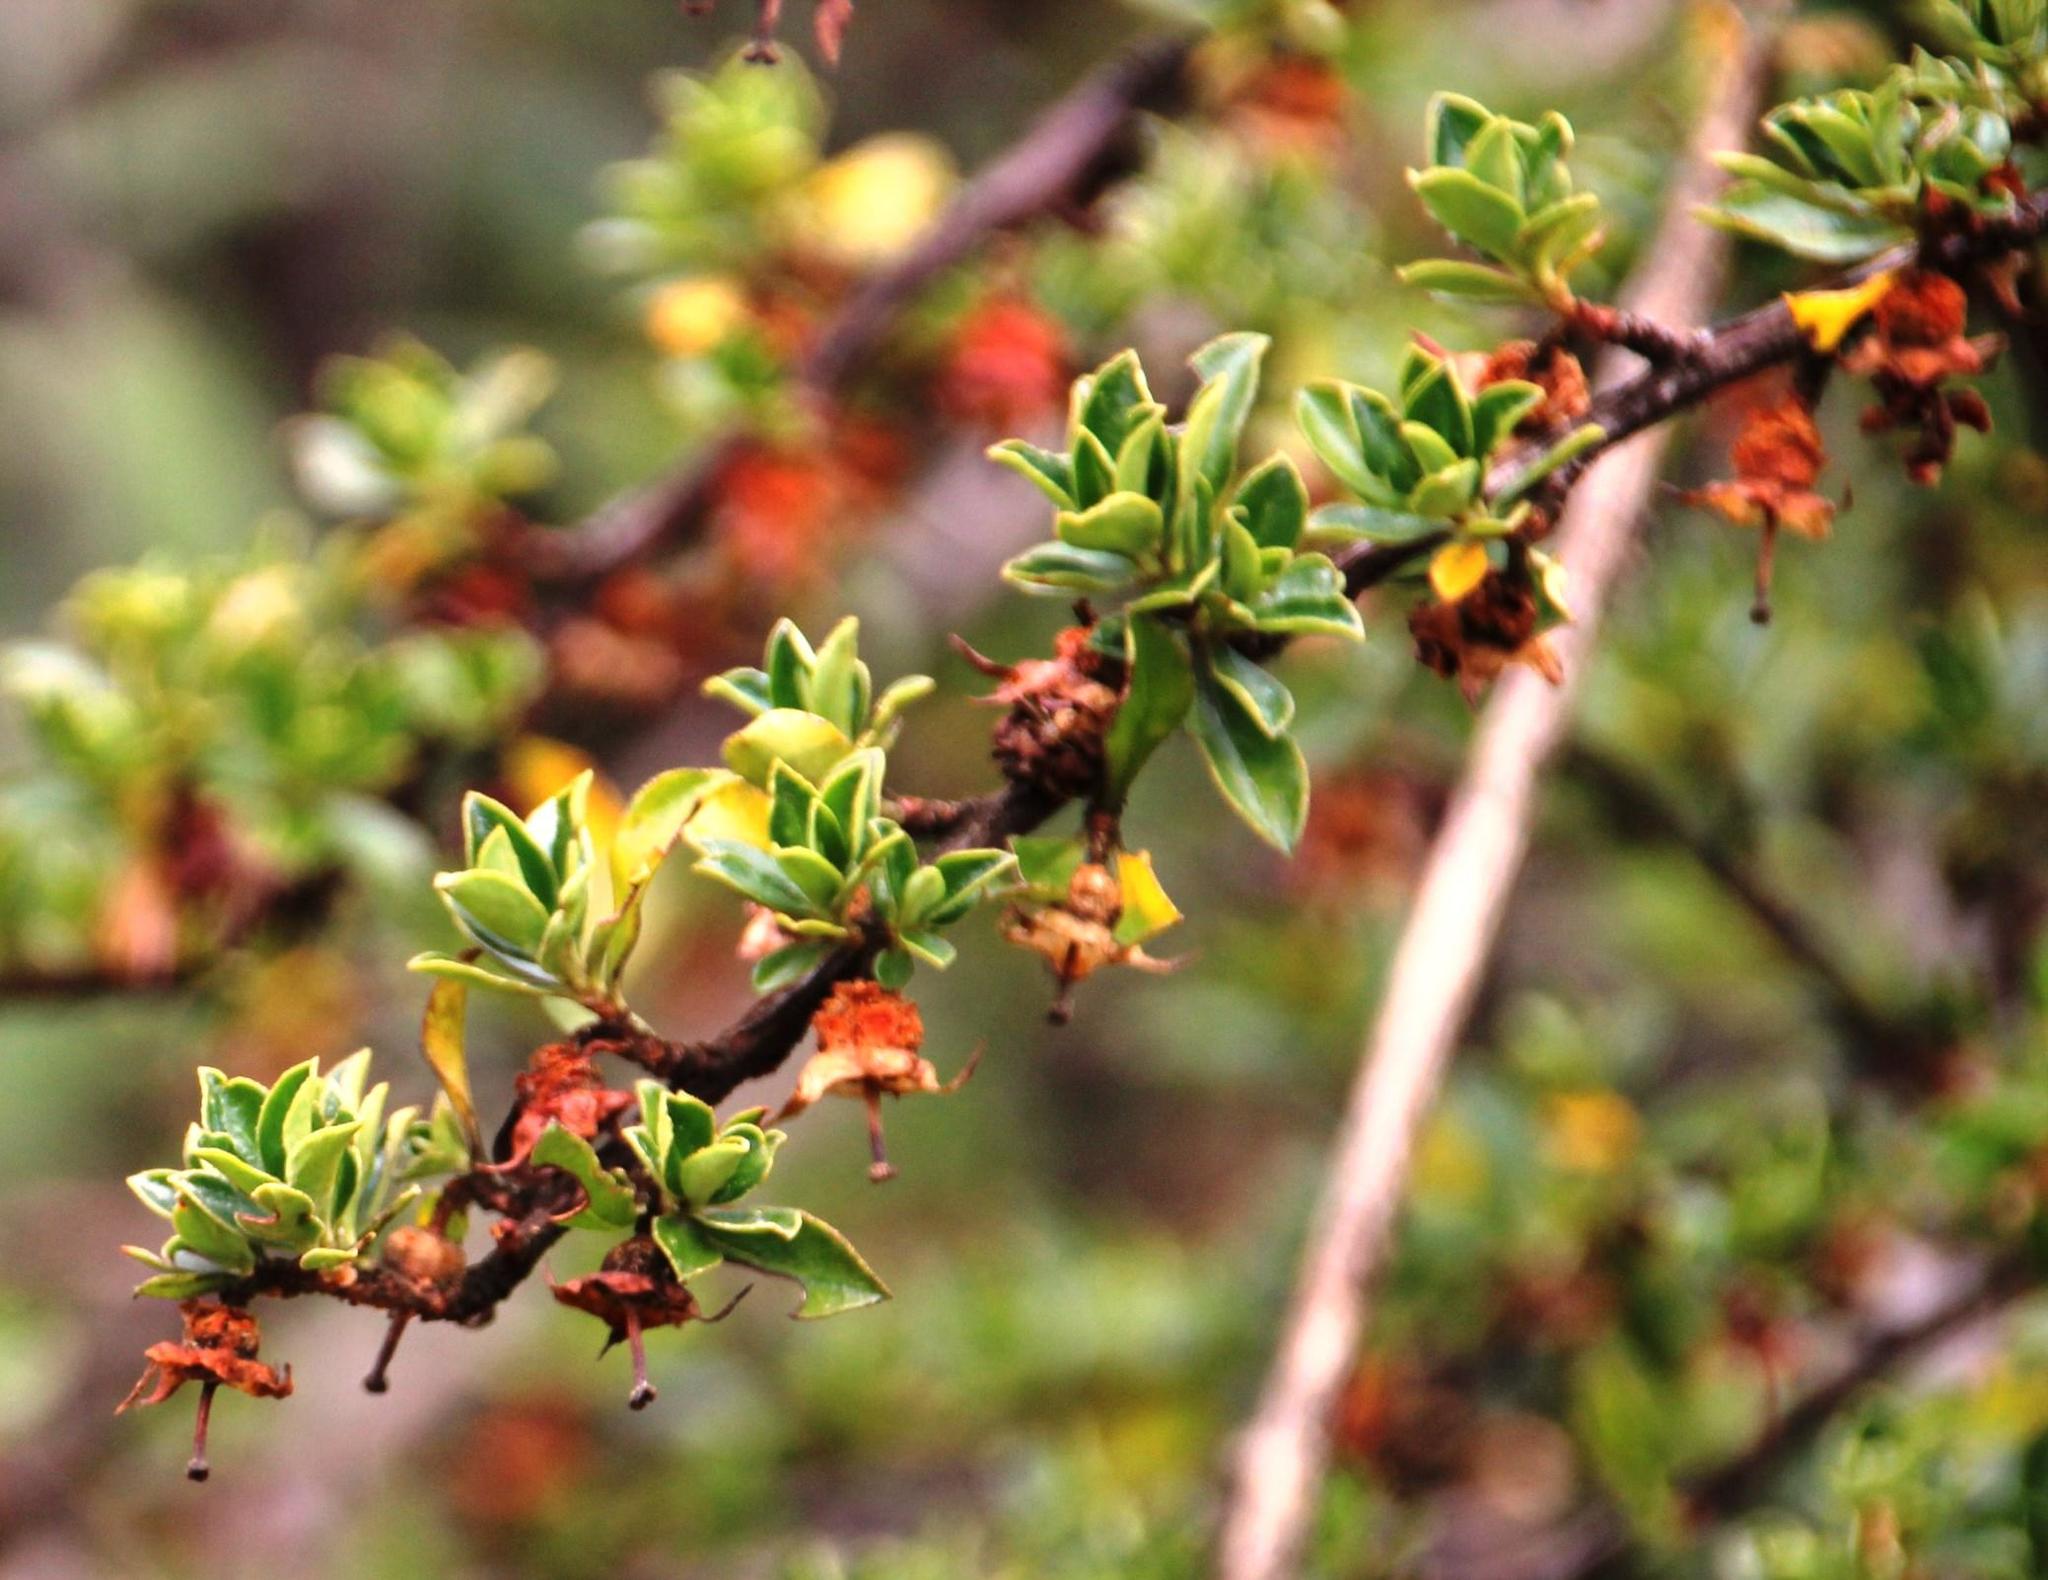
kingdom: Plantae
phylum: Tracheophyta
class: Magnoliopsida
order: Escalloniales
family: Escalloniaceae
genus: Escallonia
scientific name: Escallonia myrtilloides
